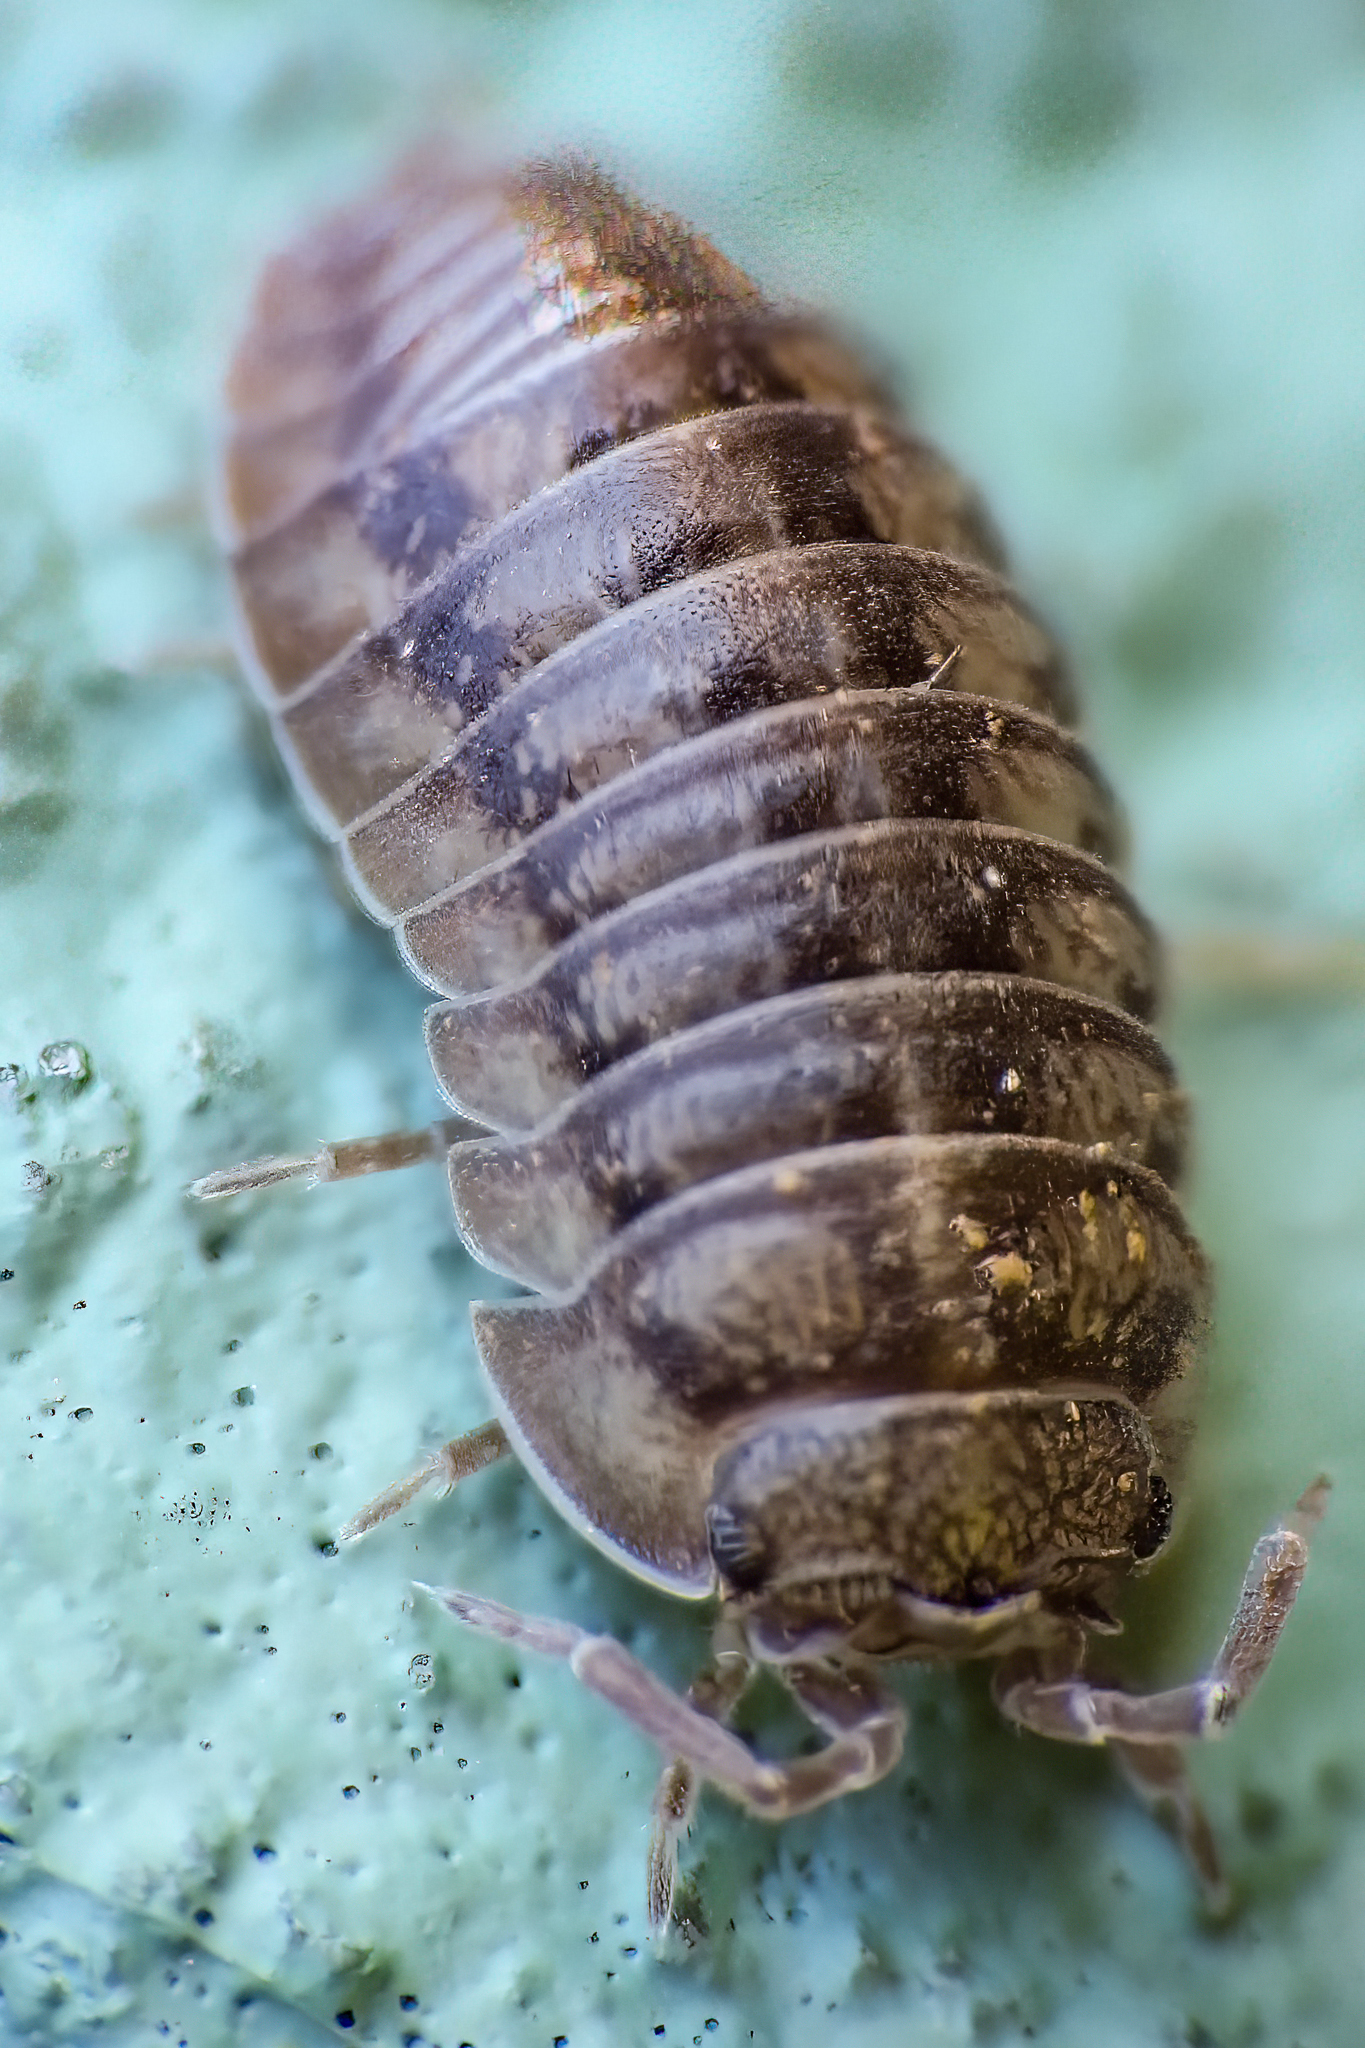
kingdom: Animalia
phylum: Arthropoda
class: Malacostraca
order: Isopoda
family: Armadillidiidae
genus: Armadillidium
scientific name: Armadillidium nasatum
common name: Isopod
